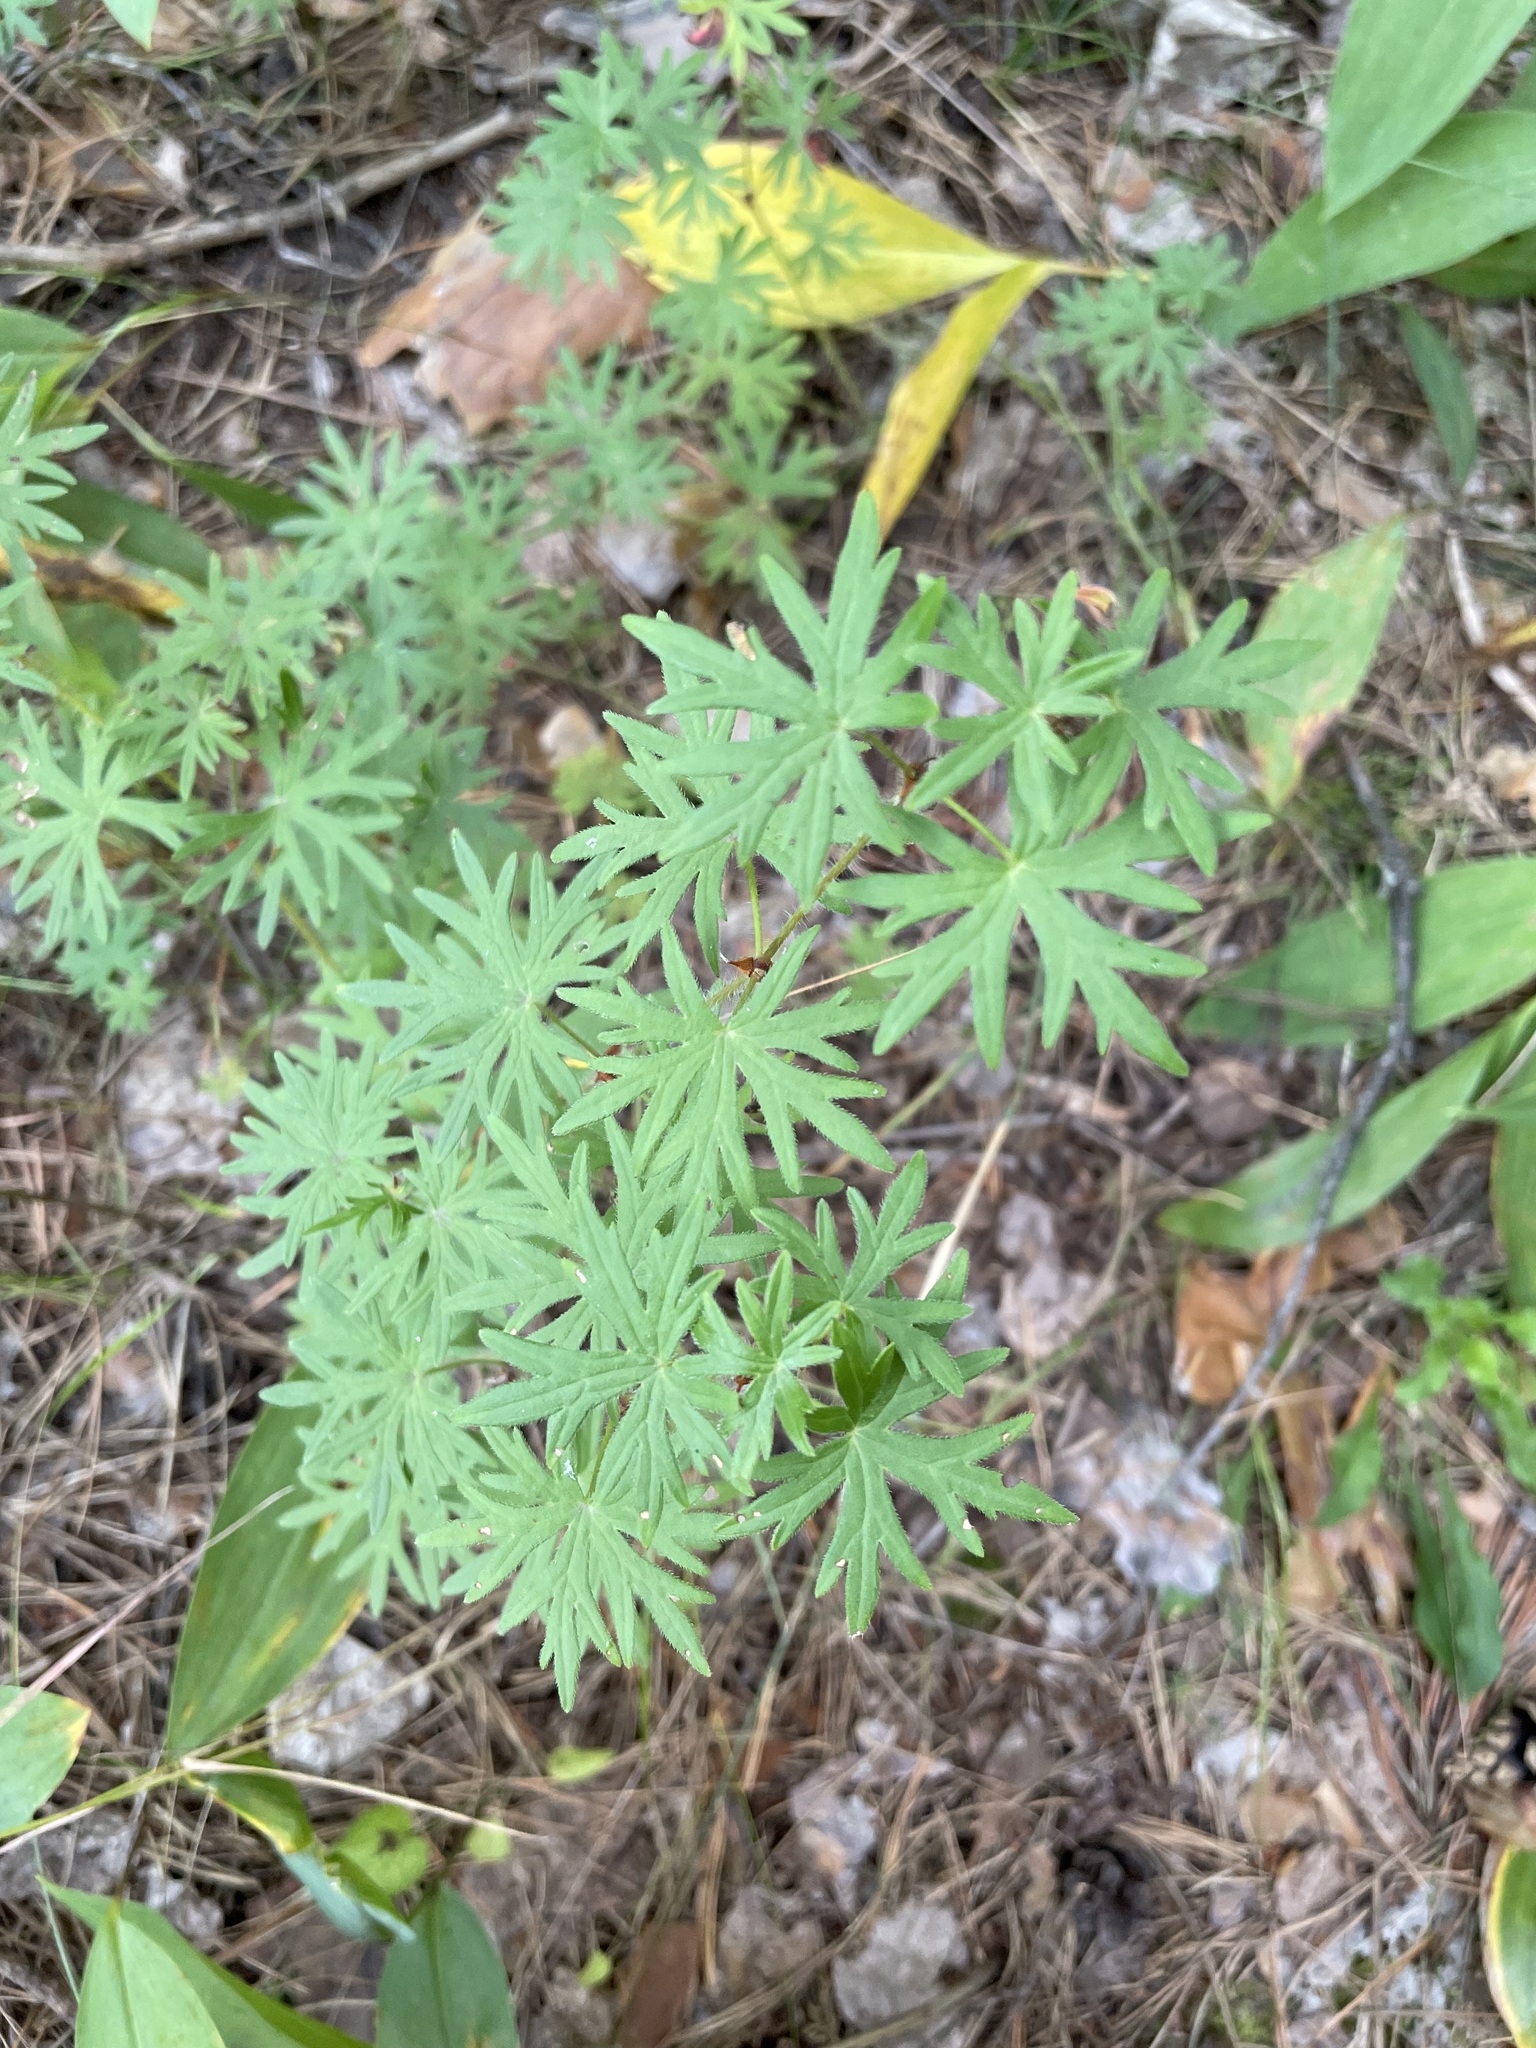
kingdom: Plantae
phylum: Tracheophyta
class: Magnoliopsida
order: Geraniales
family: Geraniaceae
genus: Geranium
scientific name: Geranium sanguineum
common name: Bloody crane's-bill
